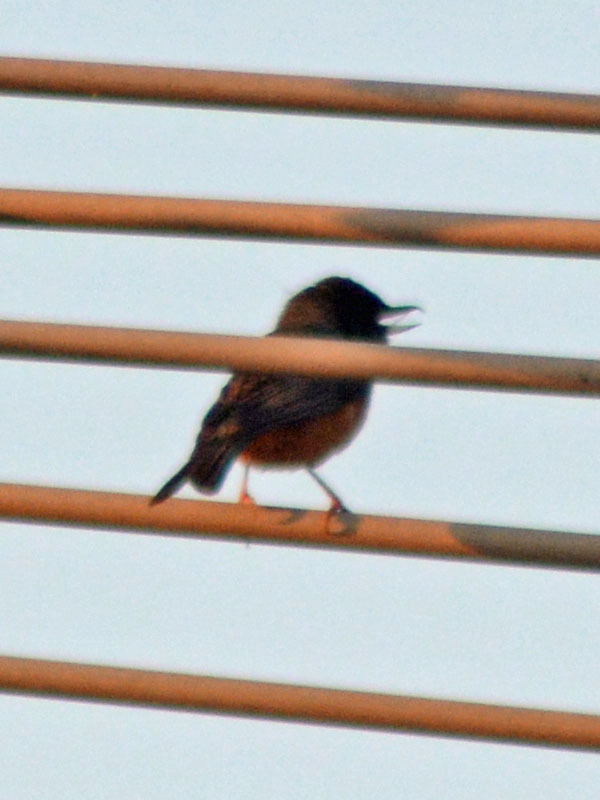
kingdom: Animalia
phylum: Chordata
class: Aves
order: Passeriformes
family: Thraupidae
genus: Diglossa
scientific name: Diglossa baritula
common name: Cinnamon-bellied flowerpiercer
